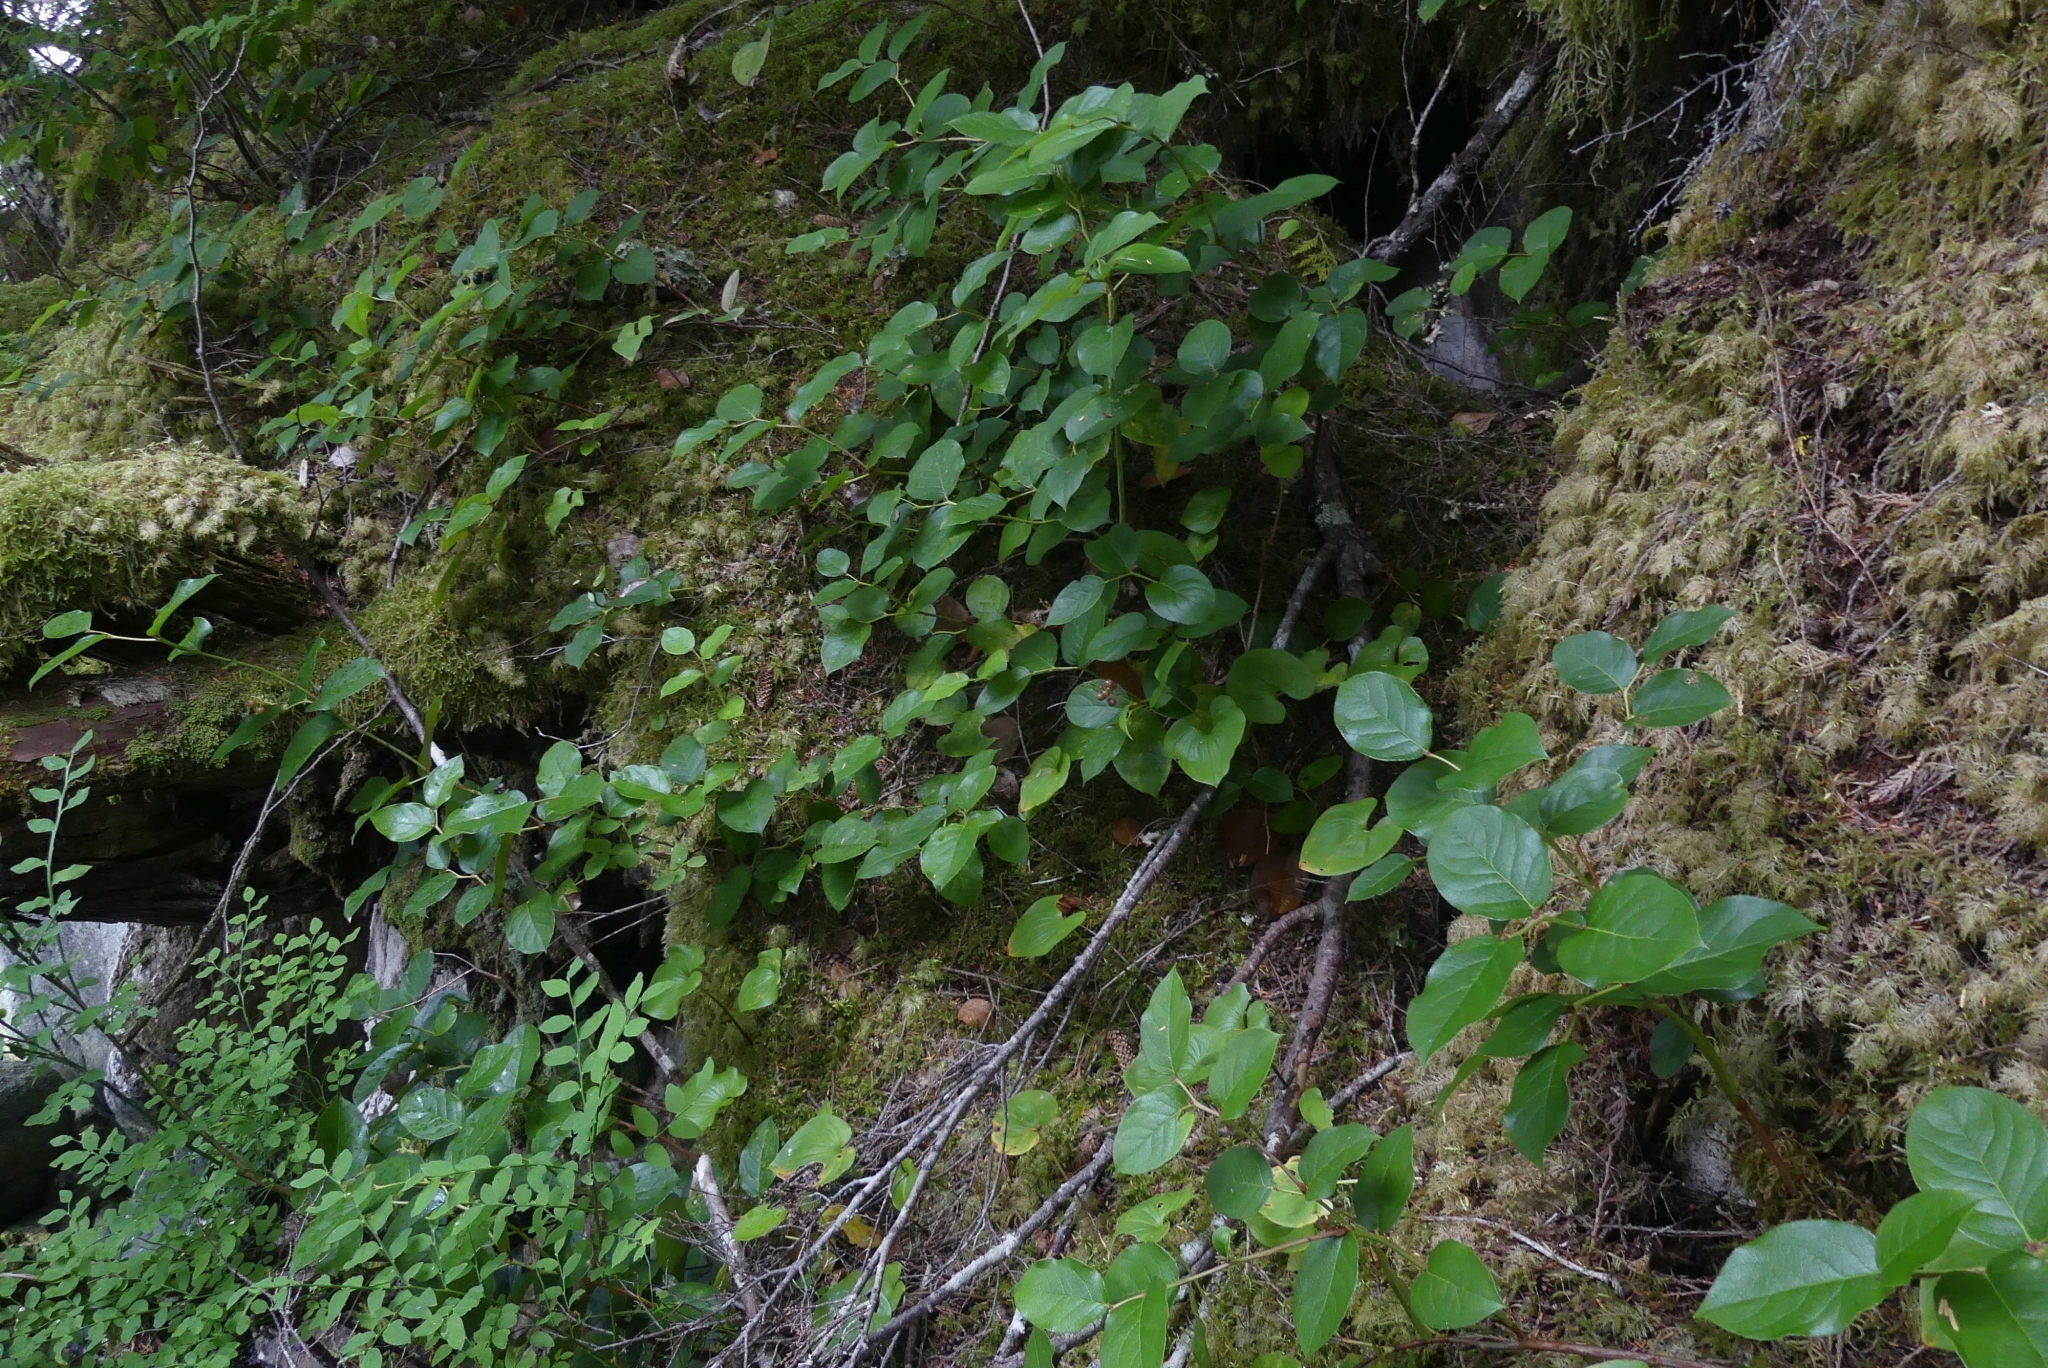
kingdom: Plantae
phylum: Tracheophyta
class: Magnoliopsida
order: Ericales
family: Ericaceae
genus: Gaultheria
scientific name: Gaultheria shallon
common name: Shallon
